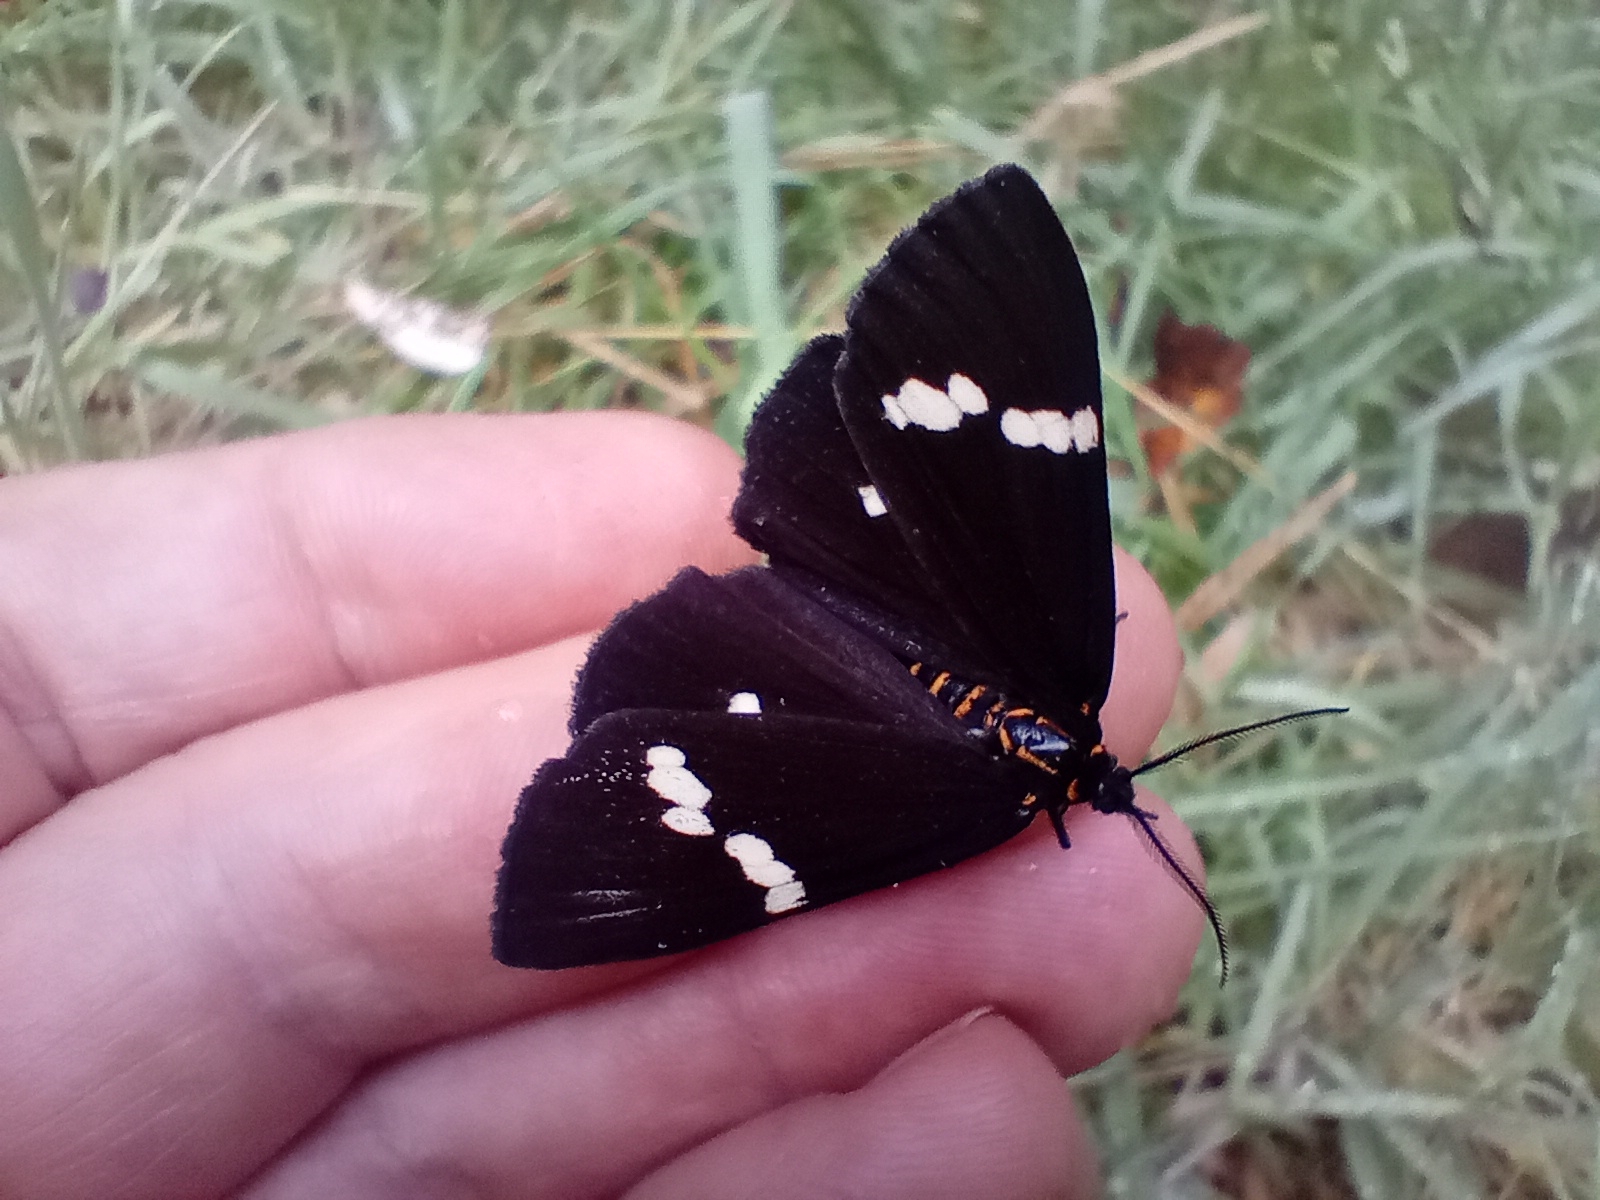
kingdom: Animalia
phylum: Arthropoda
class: Insecta
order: Lepidoptera
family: Erebidae
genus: Nyctemera
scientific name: Nyctemera annulatum
